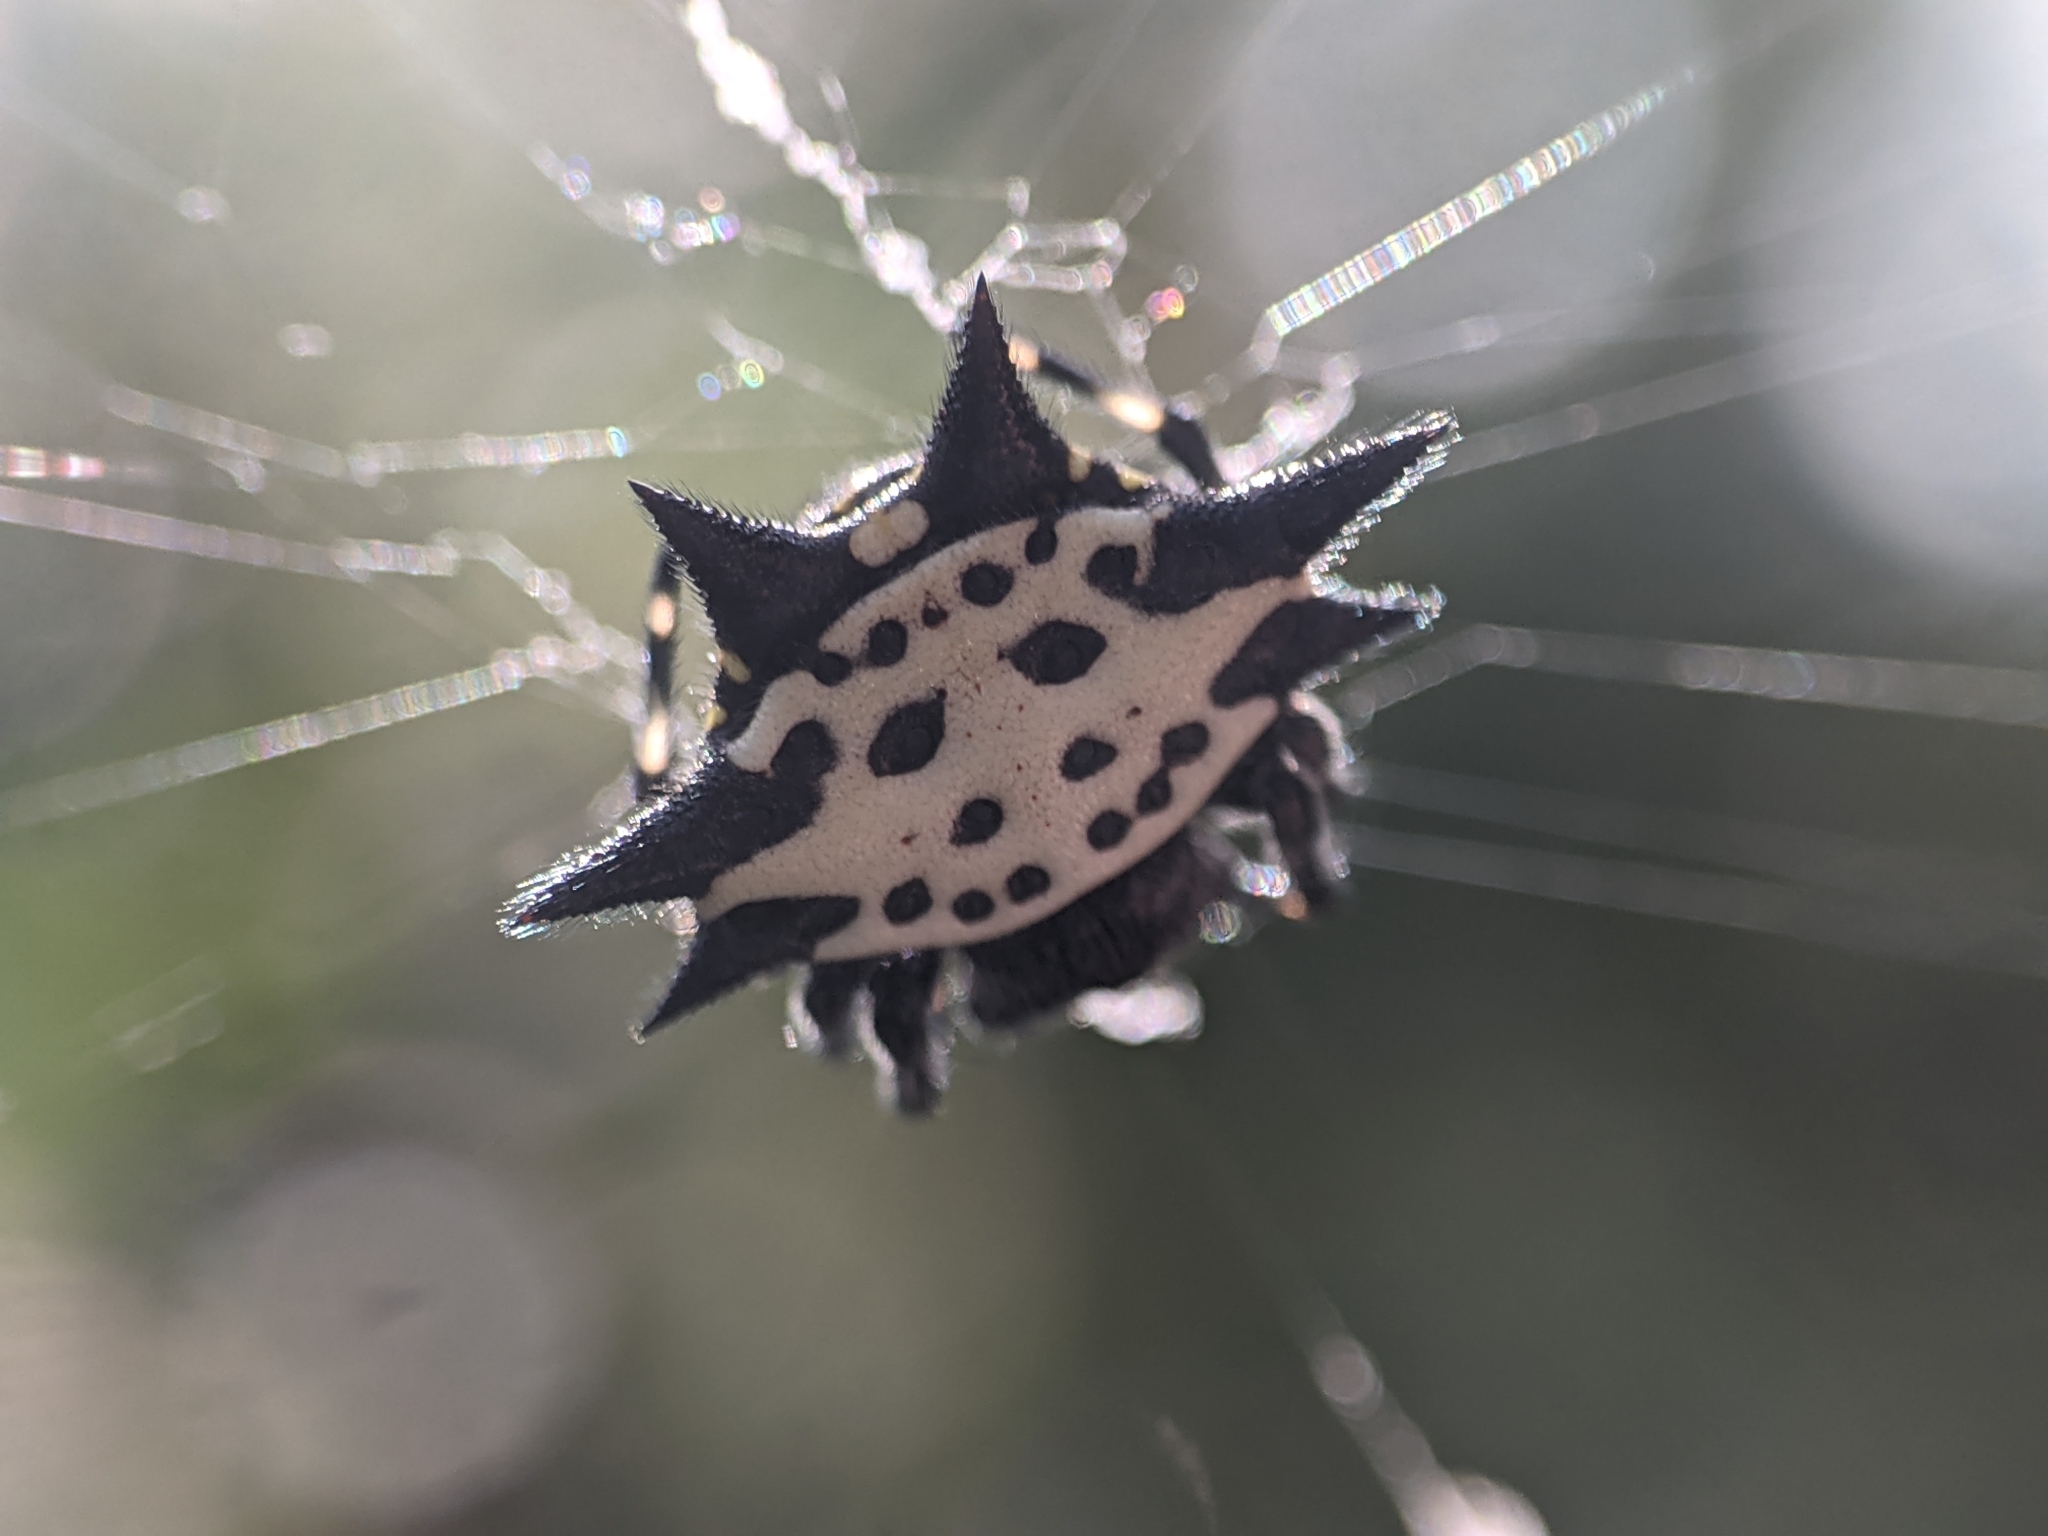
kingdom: Animalia
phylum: Arthropoda
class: Arachnida
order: Araneae
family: Araneidae
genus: Gasteracantha
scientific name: Gasteracantha cancriformis
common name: Orb weavers
